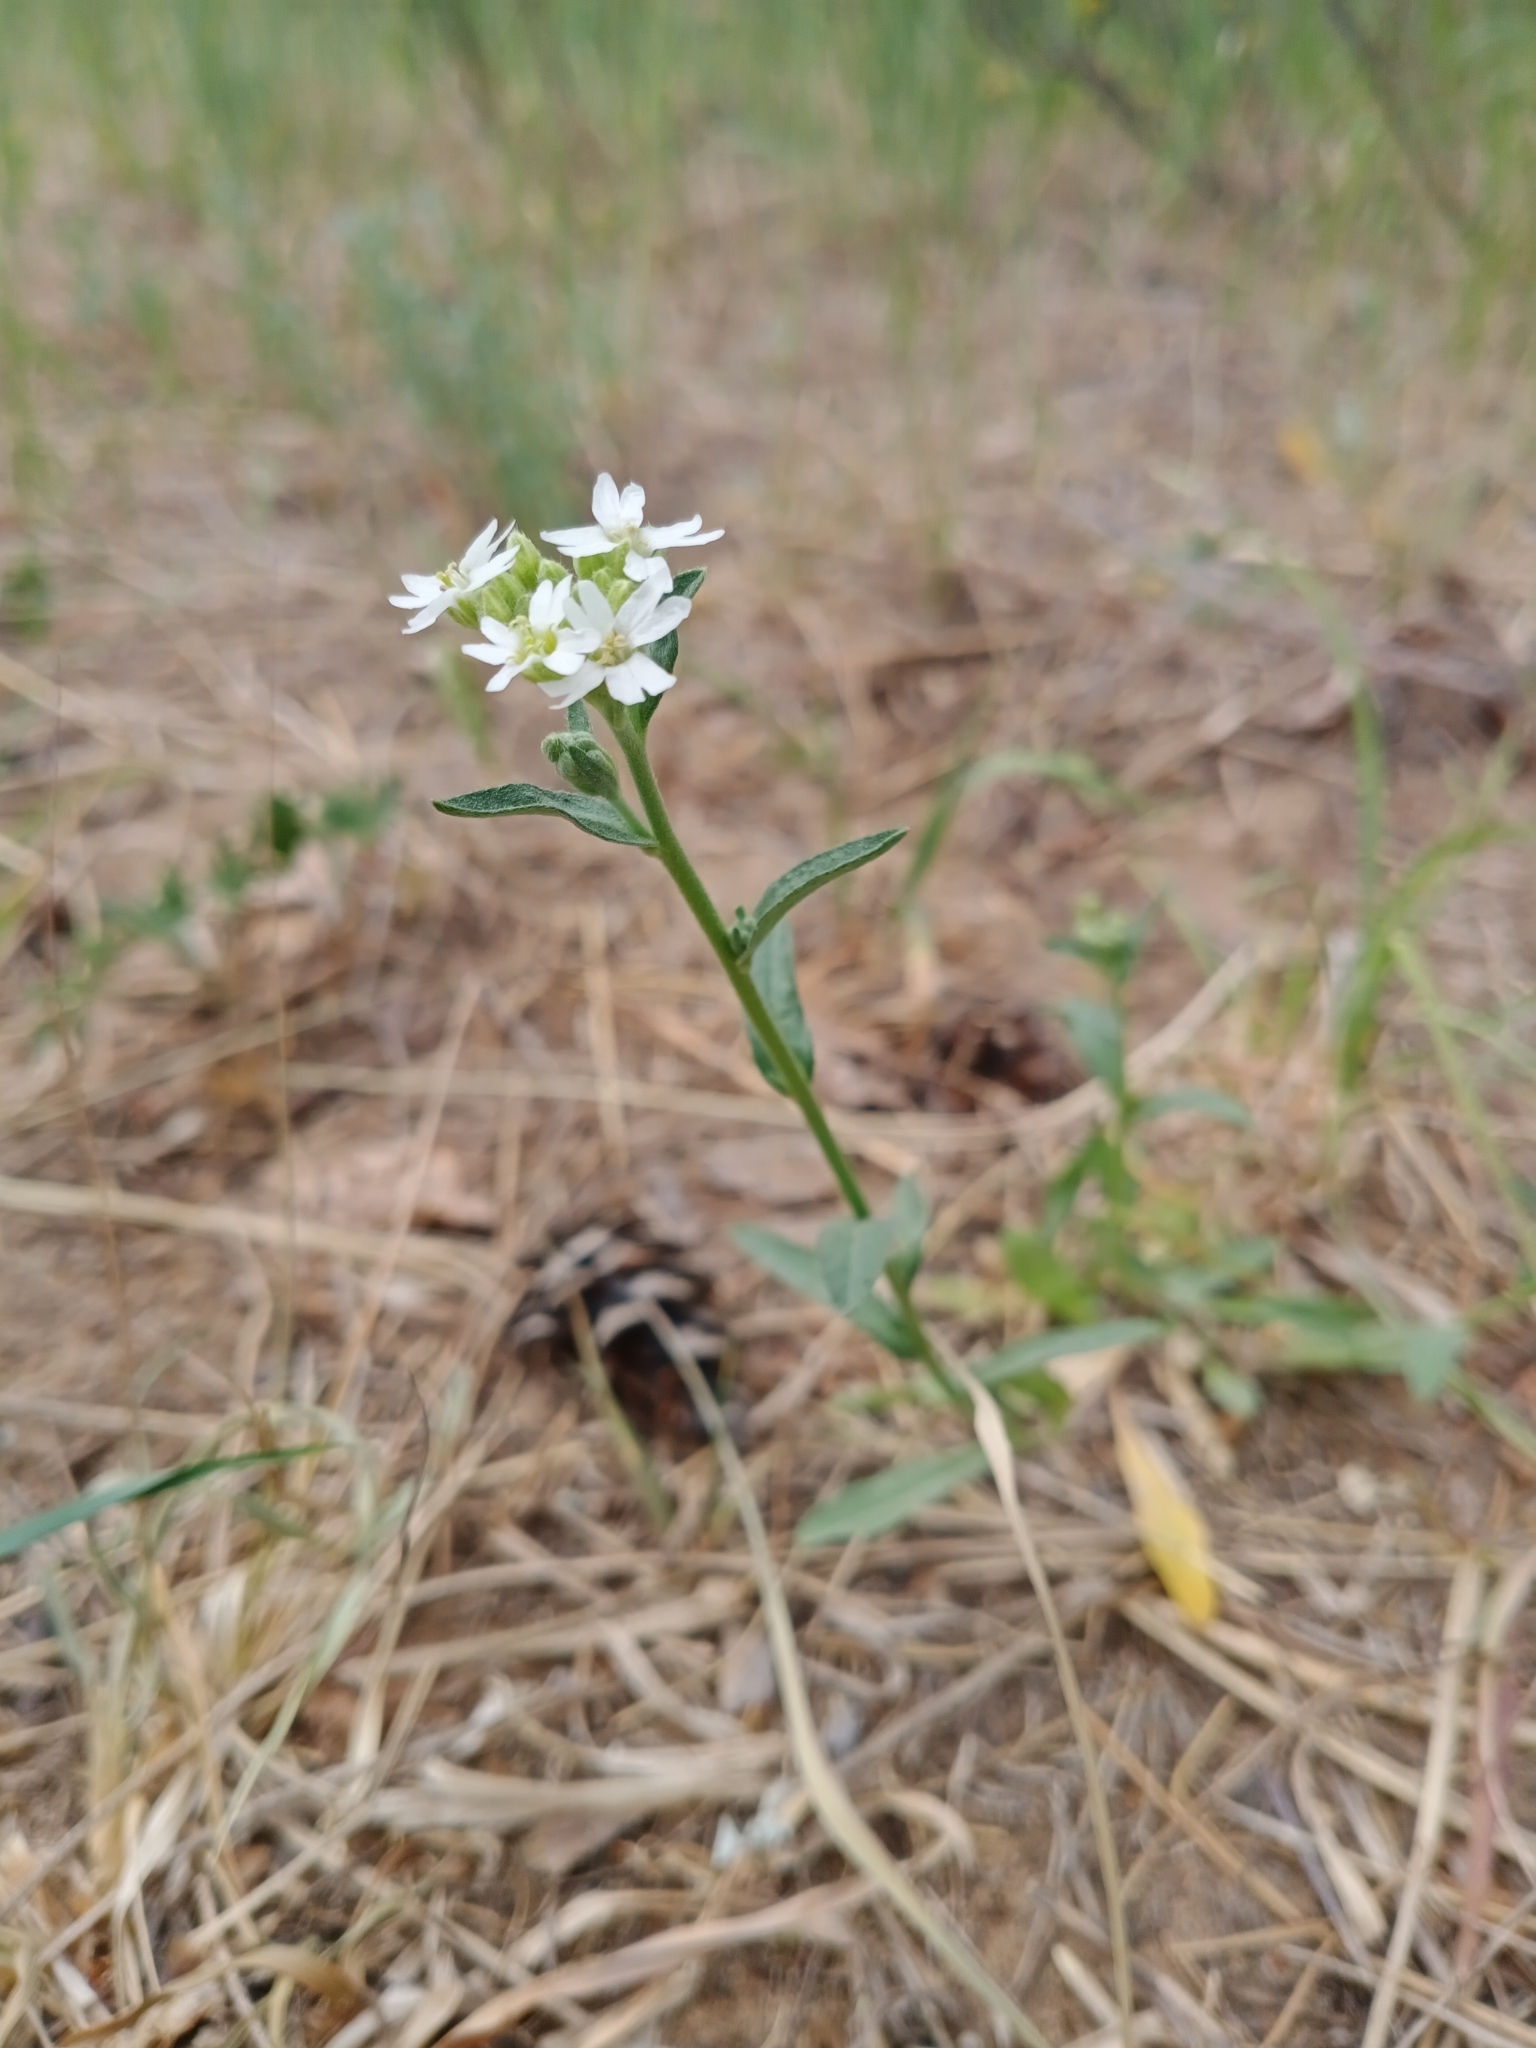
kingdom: Plantae
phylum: Tracheophyta
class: Magnoliopsida
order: Brassicales
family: Brassicaceae
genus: Berteroa
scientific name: Berteroa incana
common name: Hoary alison
